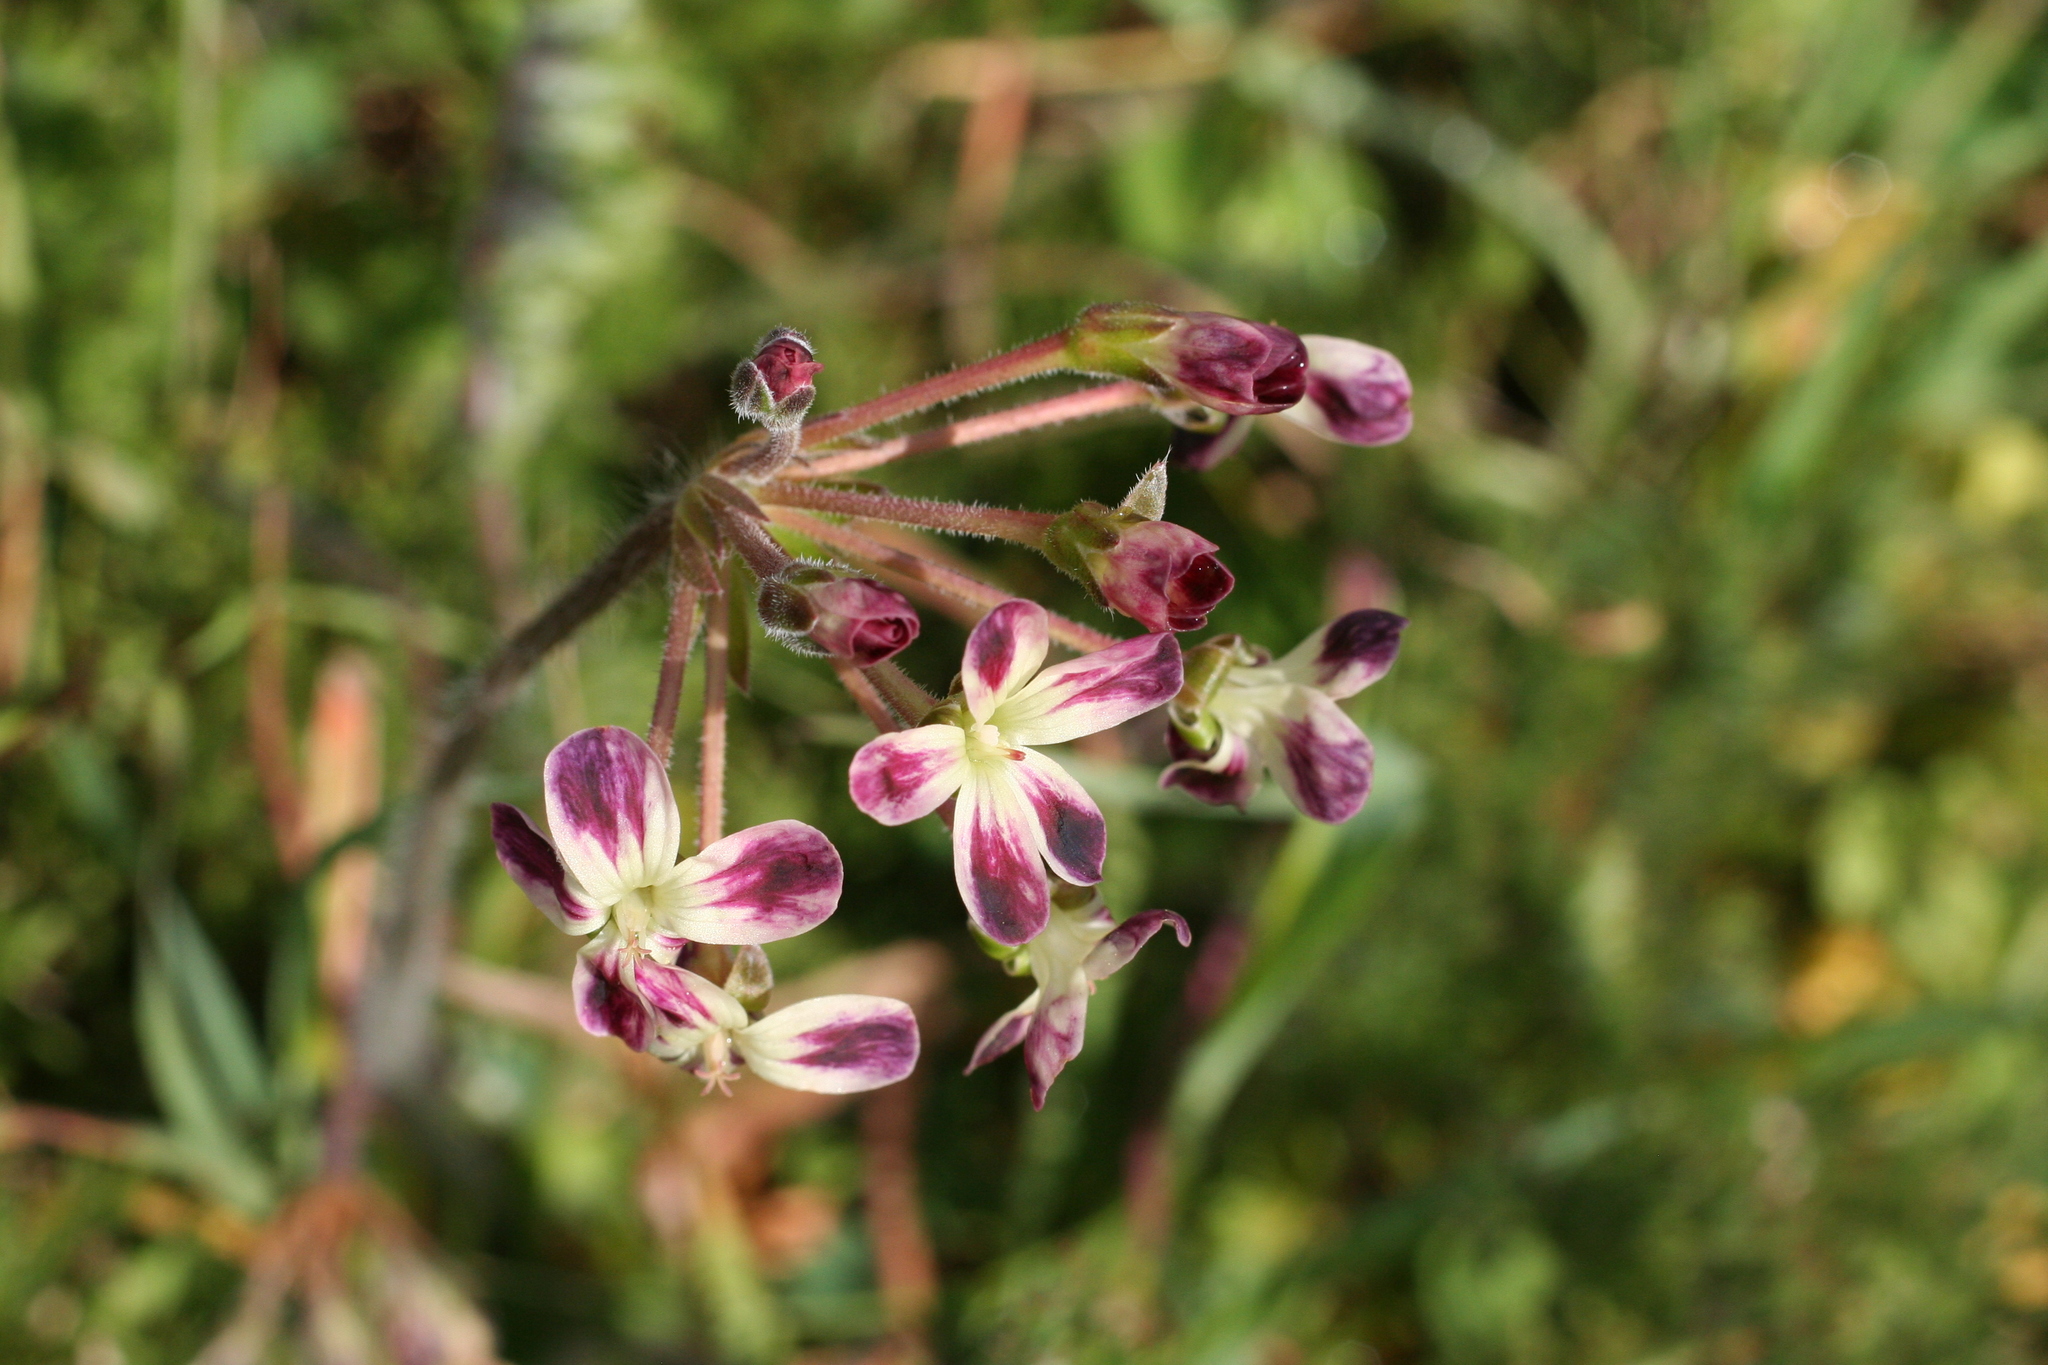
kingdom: Plantae
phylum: Tracheophyta
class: Magnoliopsida
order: Geraniales
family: Geraniaceae
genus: Pelargonium
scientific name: Pelargonium triste
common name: Night-scent pelargonium
